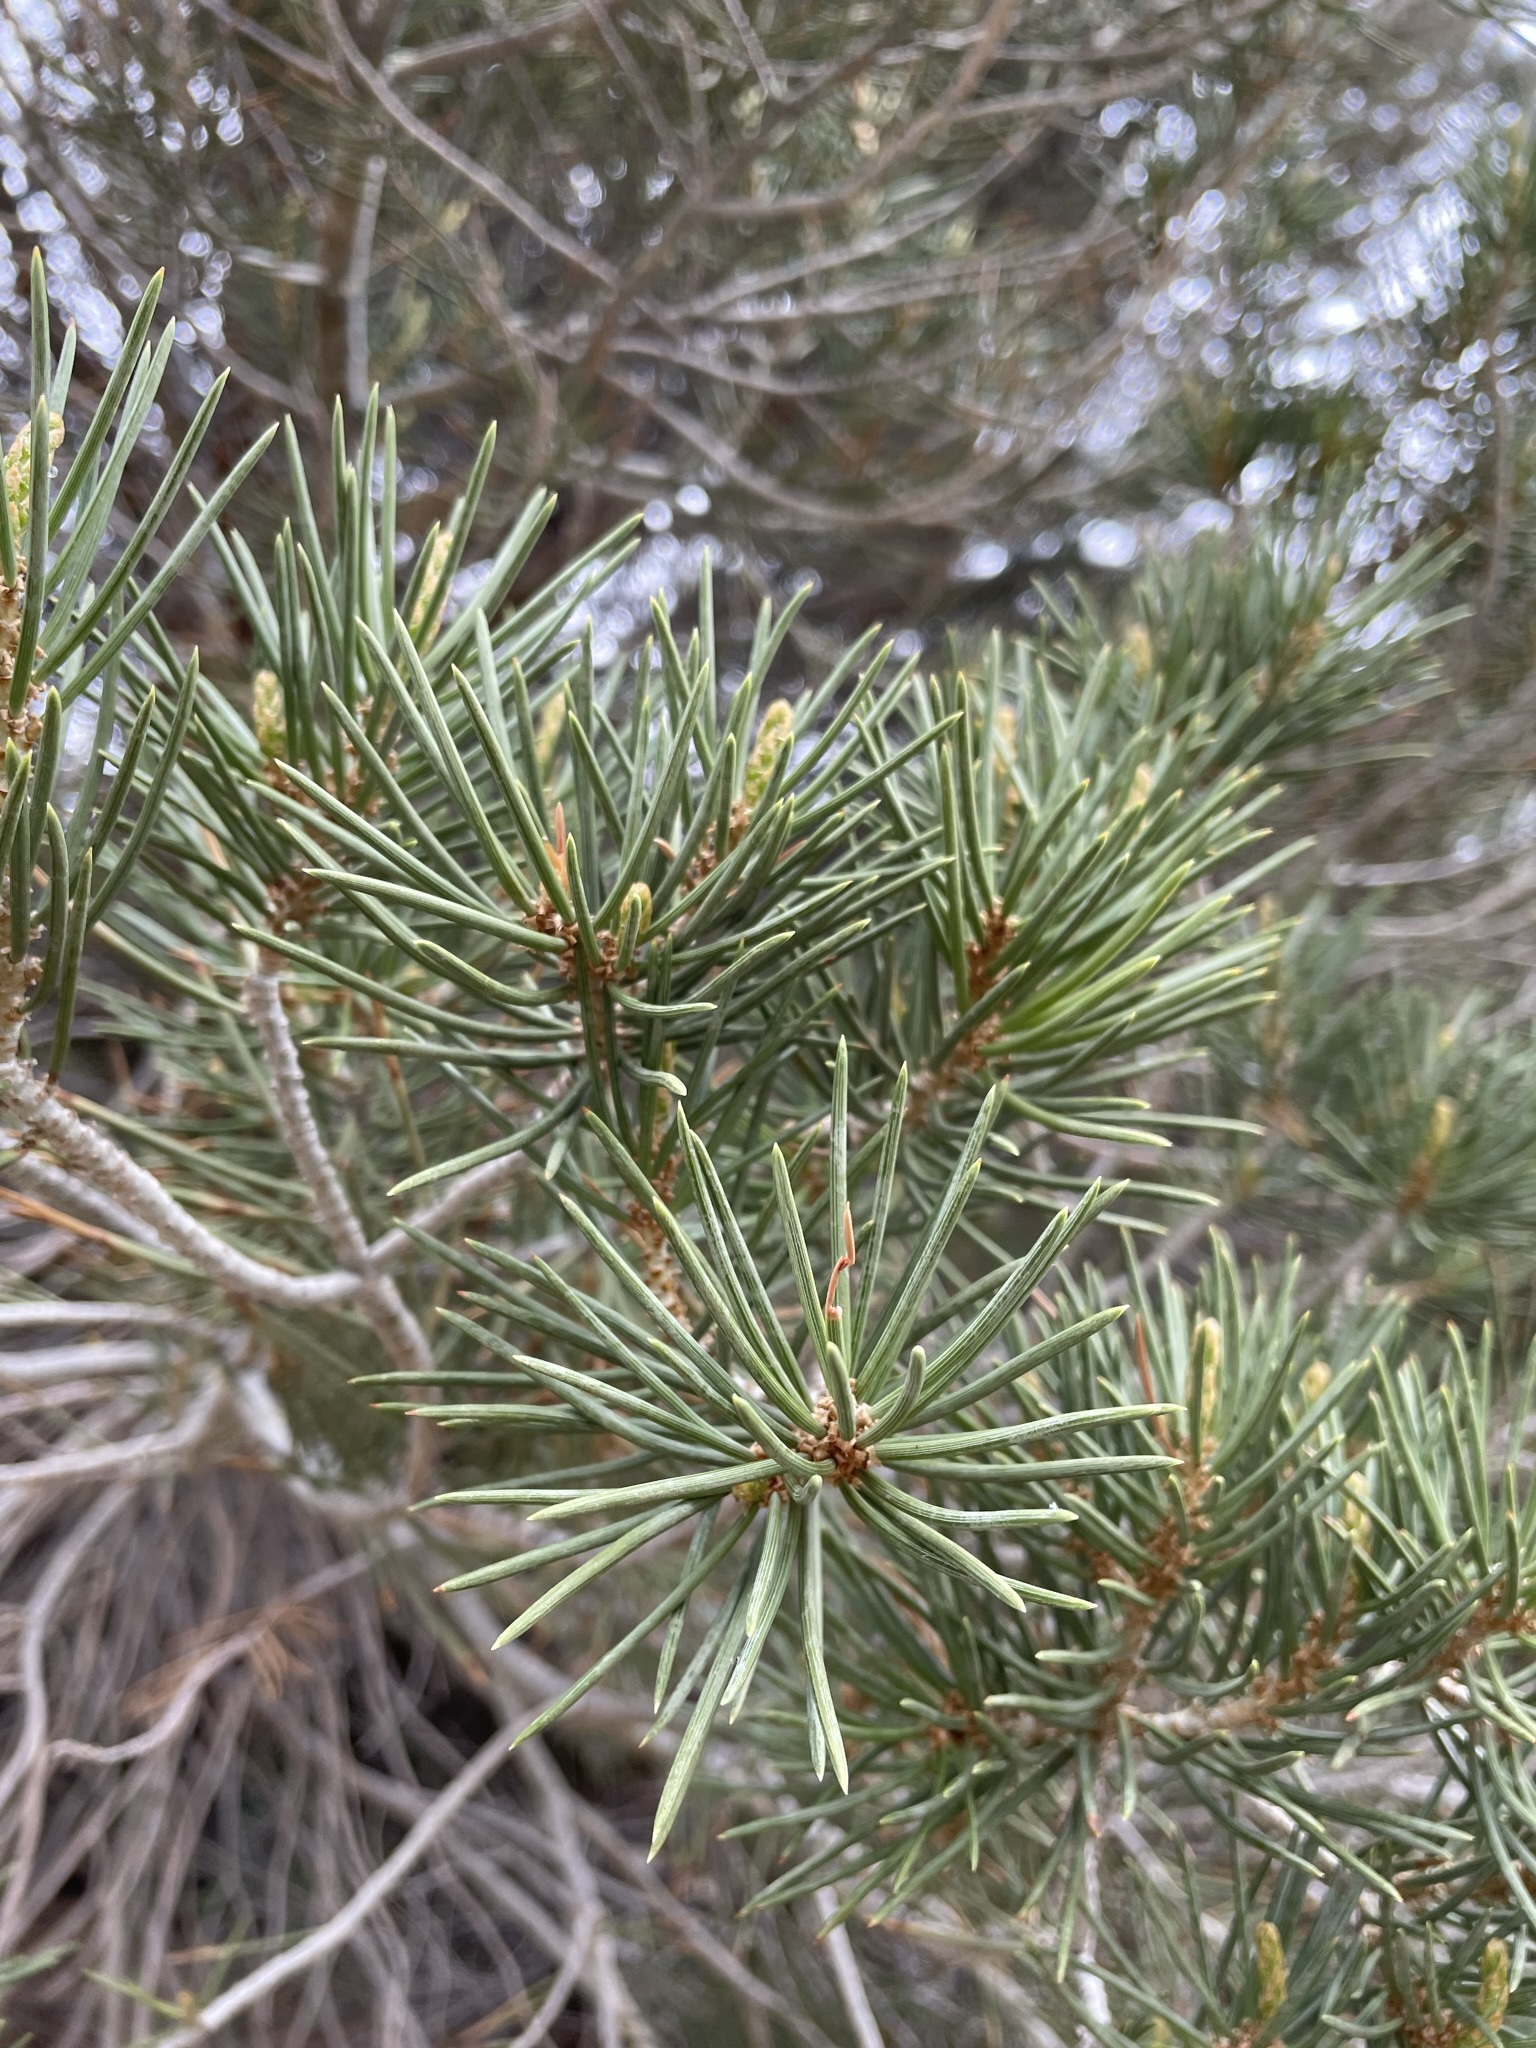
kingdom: Plantae
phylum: Tracheophyta
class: Pinopsida
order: Pinales
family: Pinaceae
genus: Pinus
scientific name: Pinus monophylla
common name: One-leaved nut pine
